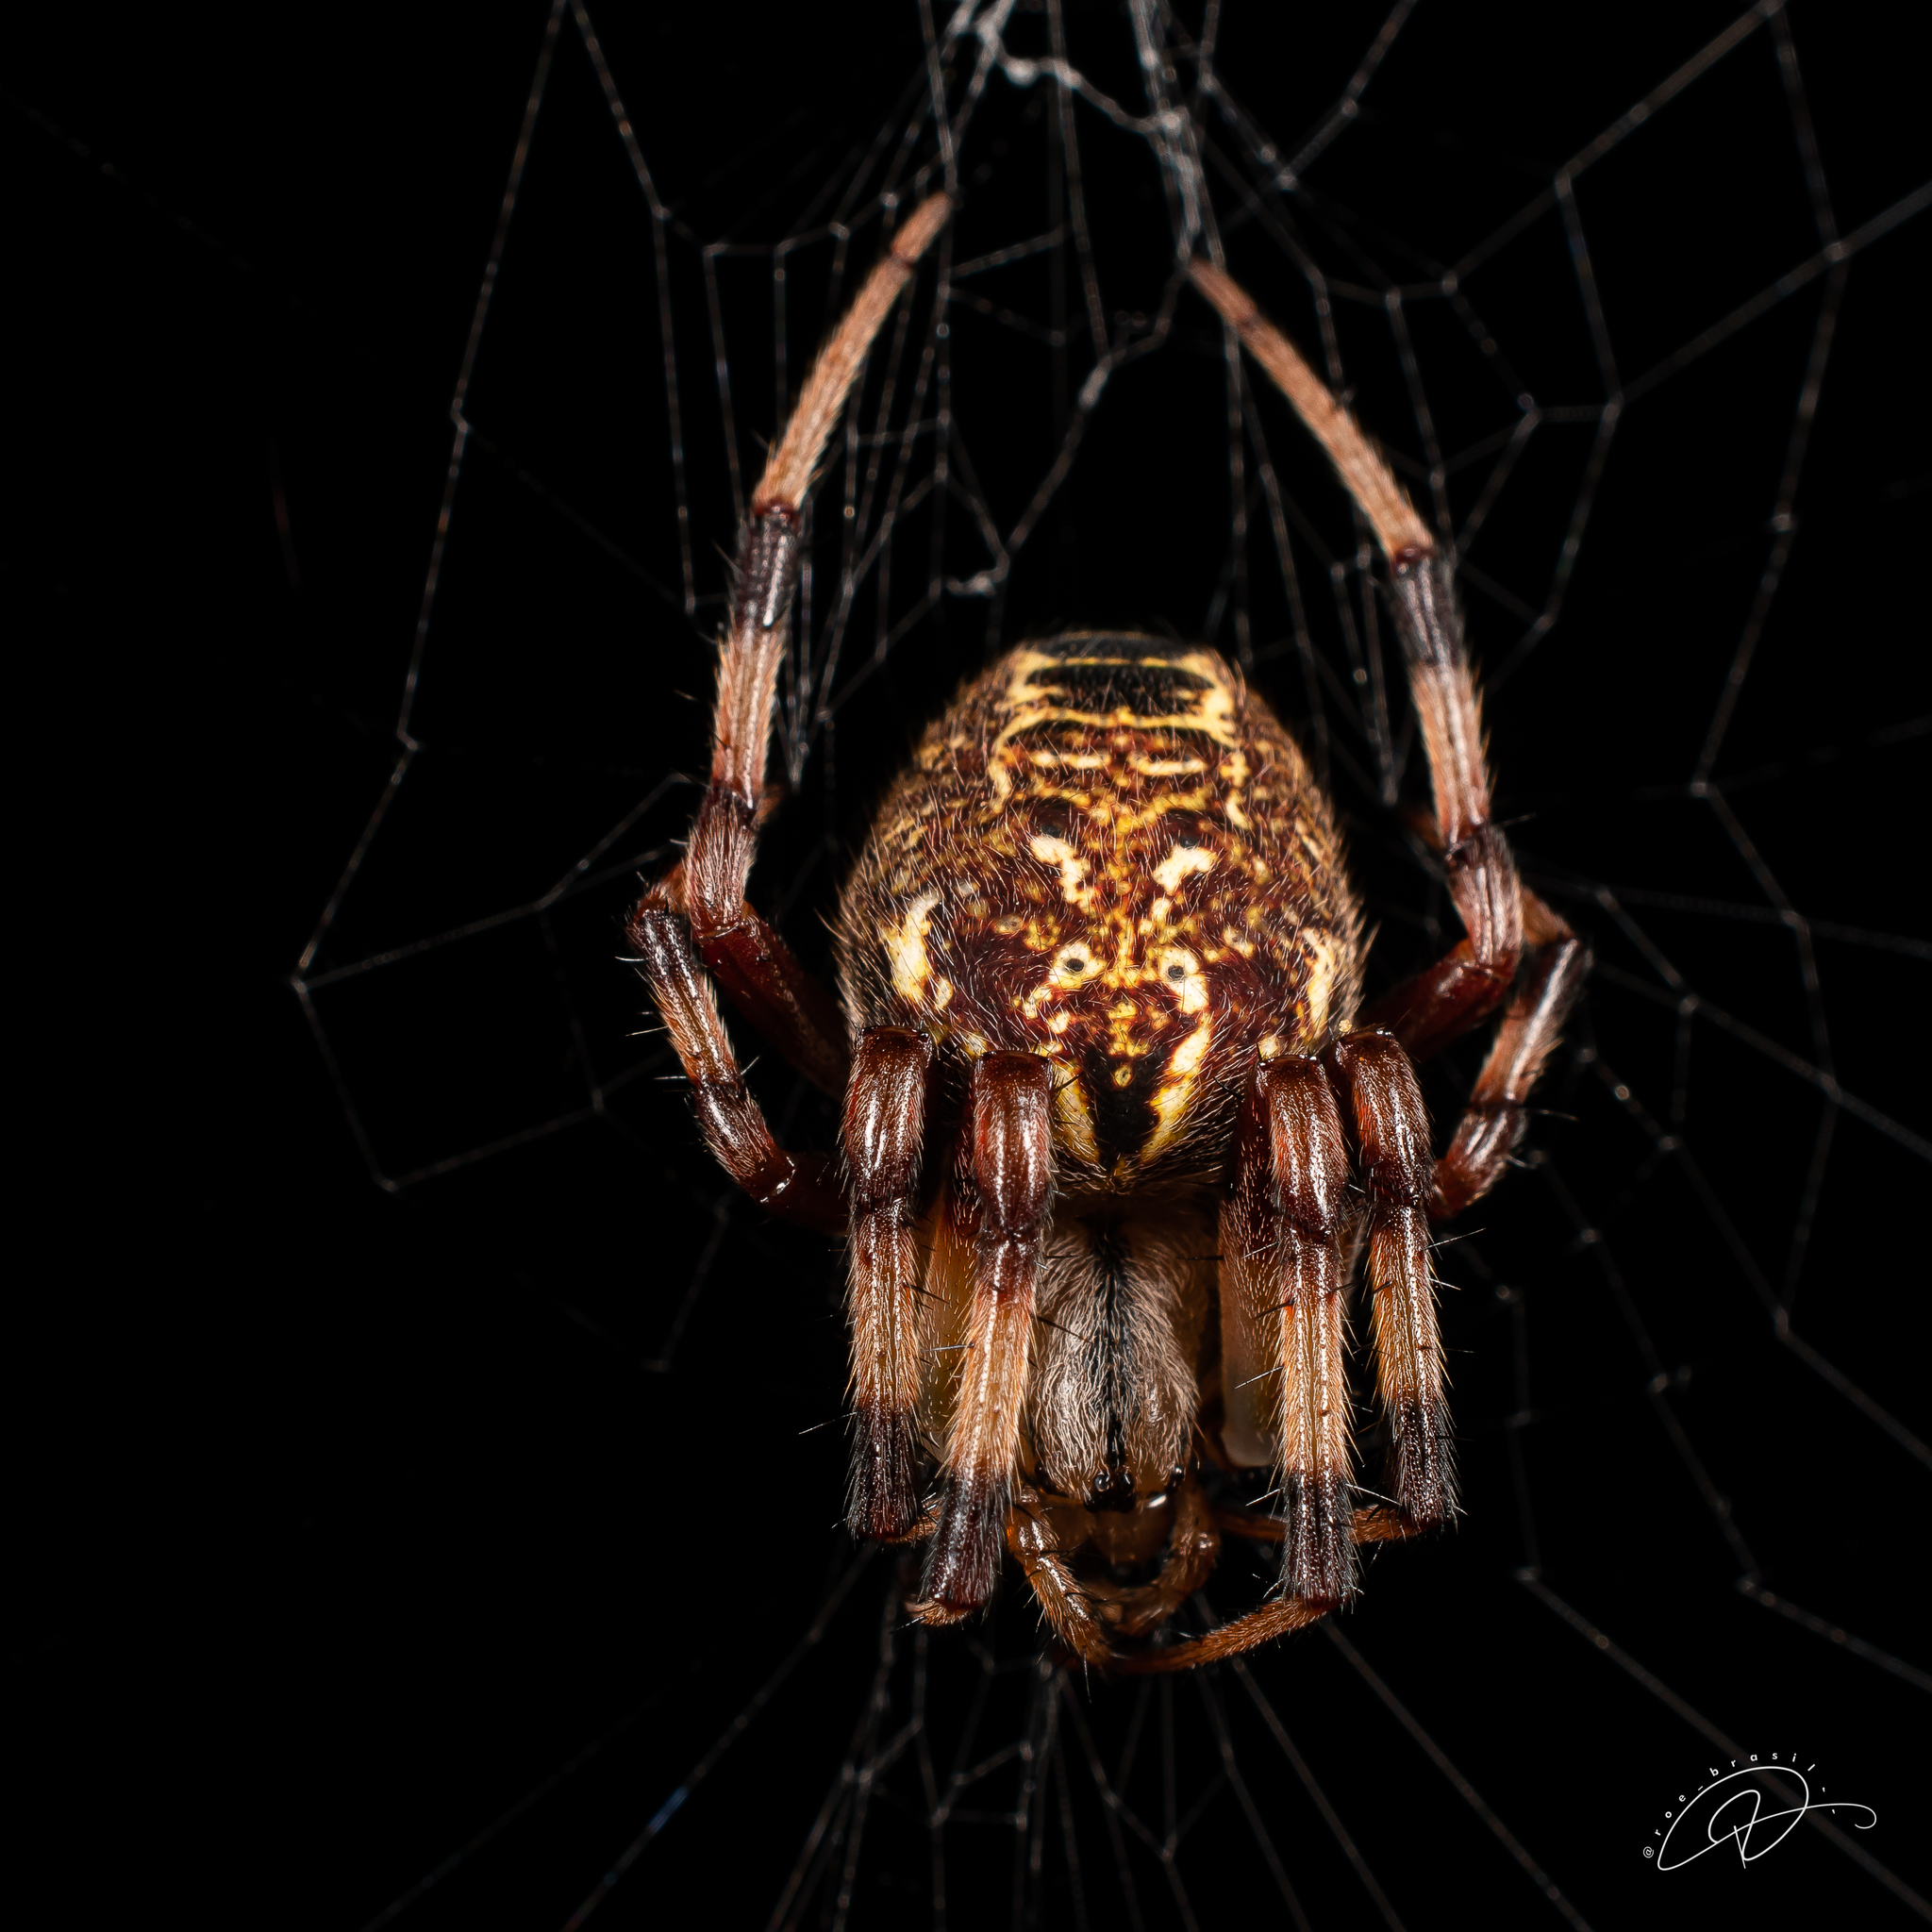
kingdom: Animalia
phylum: Arthropoda
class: Arachnida
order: Araneae
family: Araneidae
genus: Araneus
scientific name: Araneus venatrix
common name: Orb weavers
